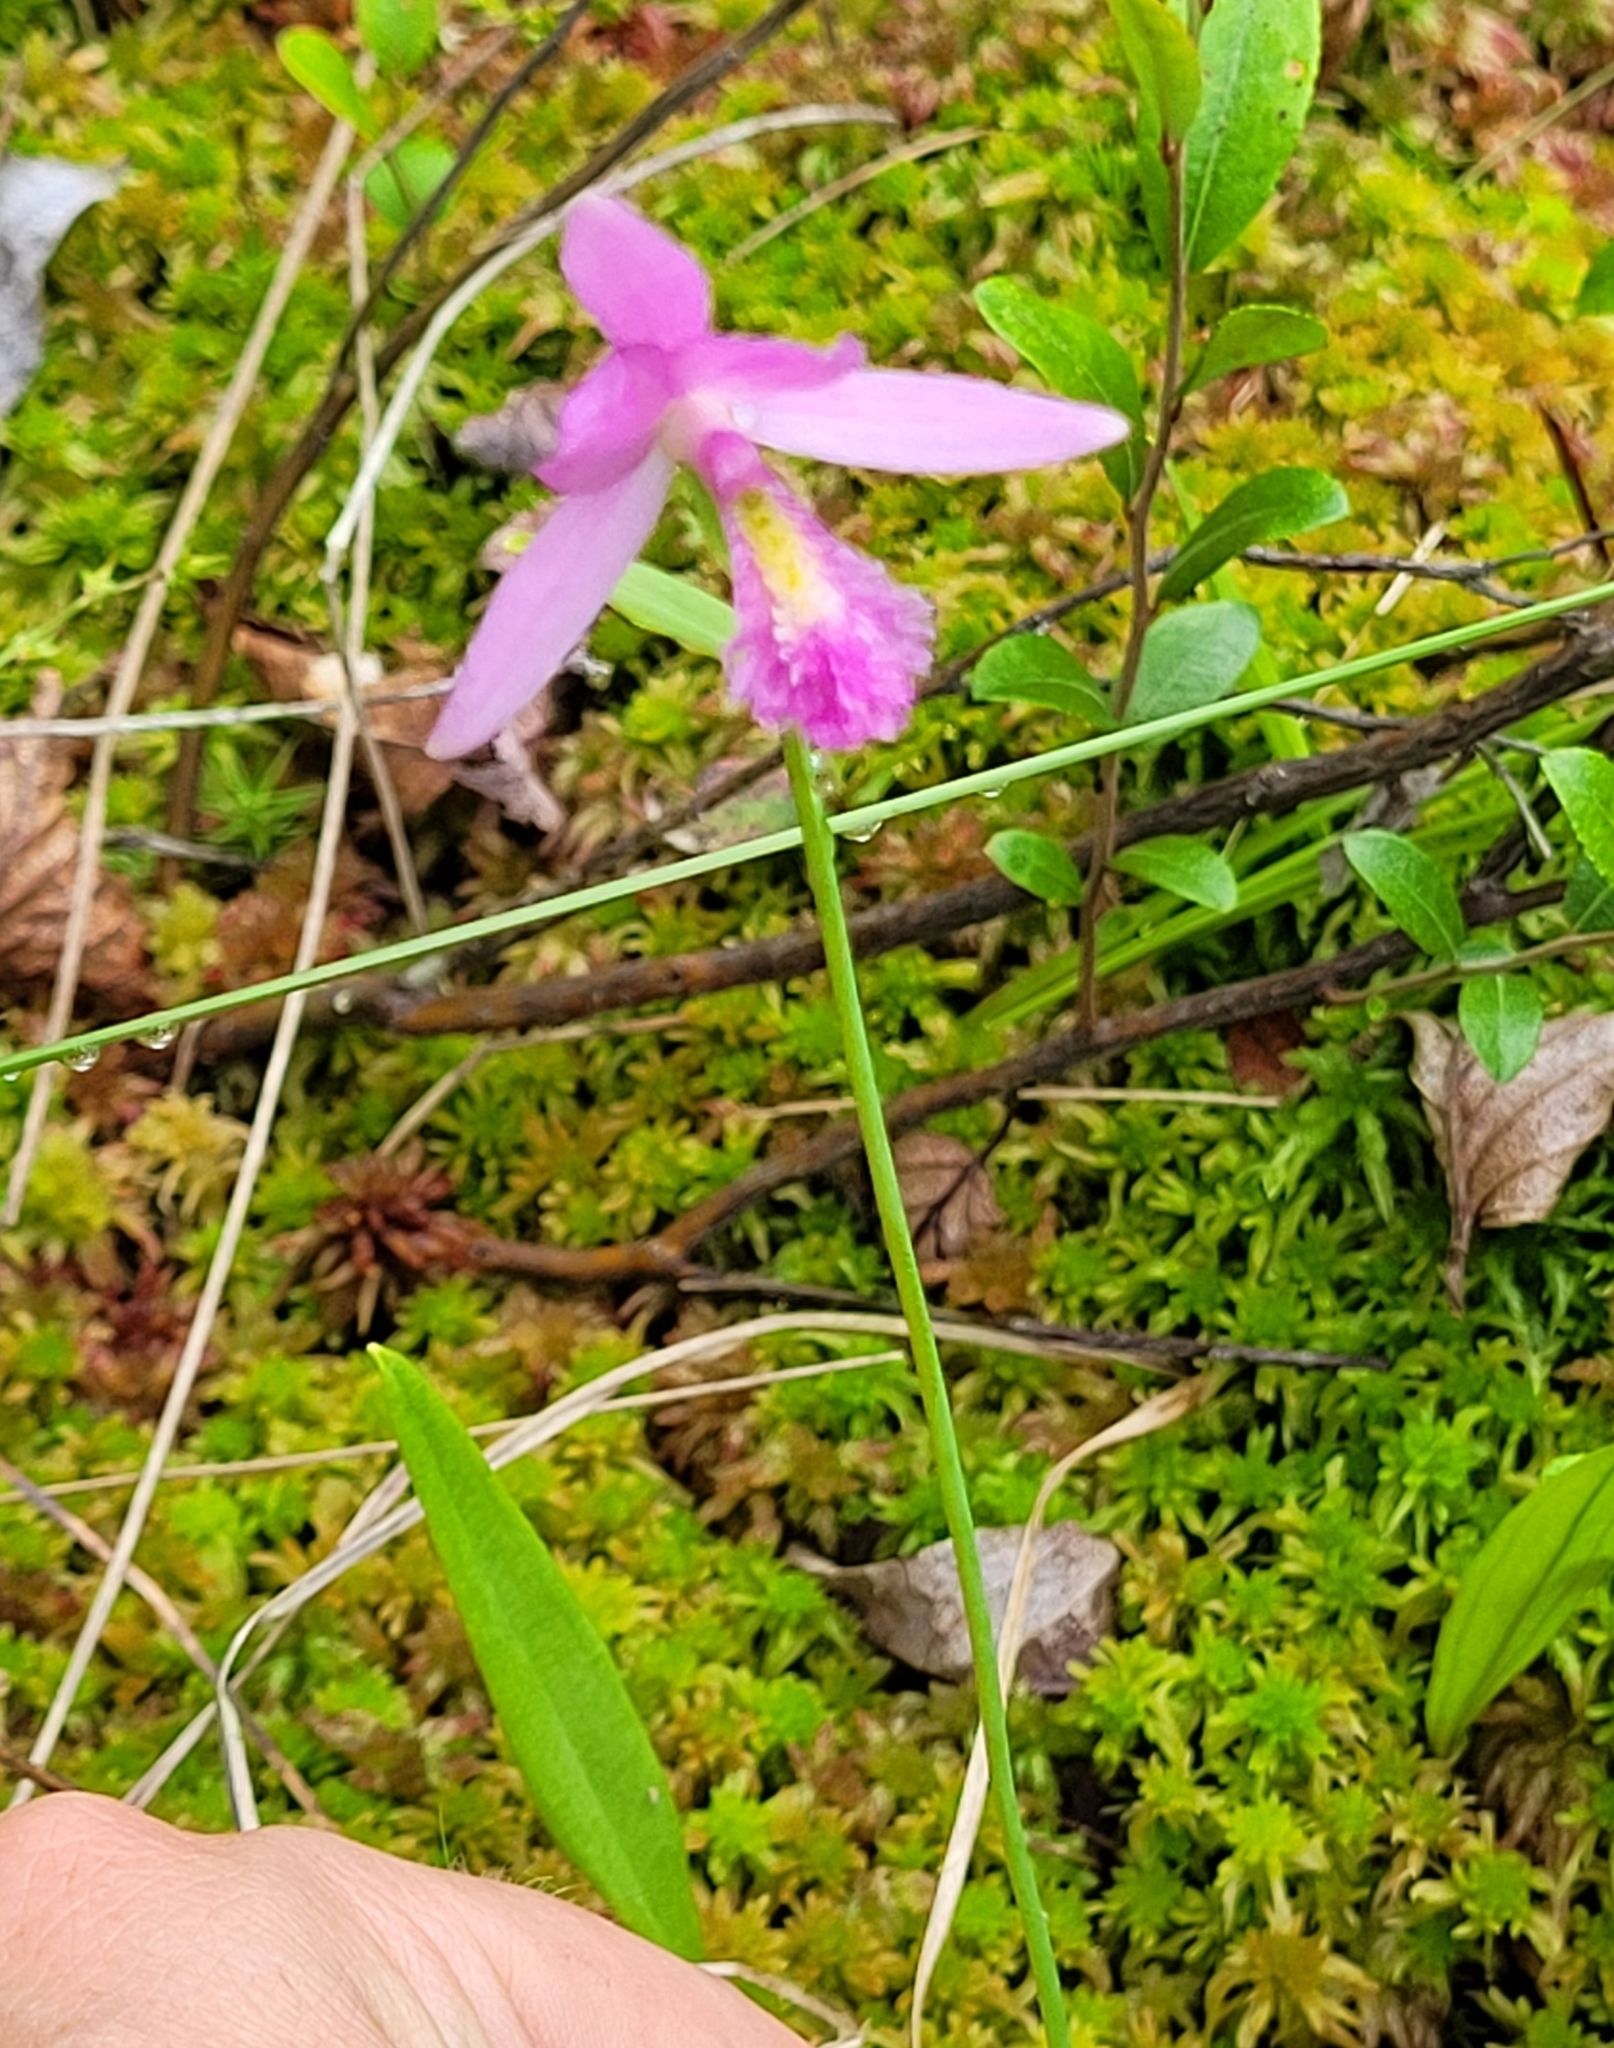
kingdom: Plantae
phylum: Tracheophyta
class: Liliopsida
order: Asparagales
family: Orchidaceae
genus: Pogonia
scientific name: Pogonia ophioglossoides
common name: Rose pogonia
